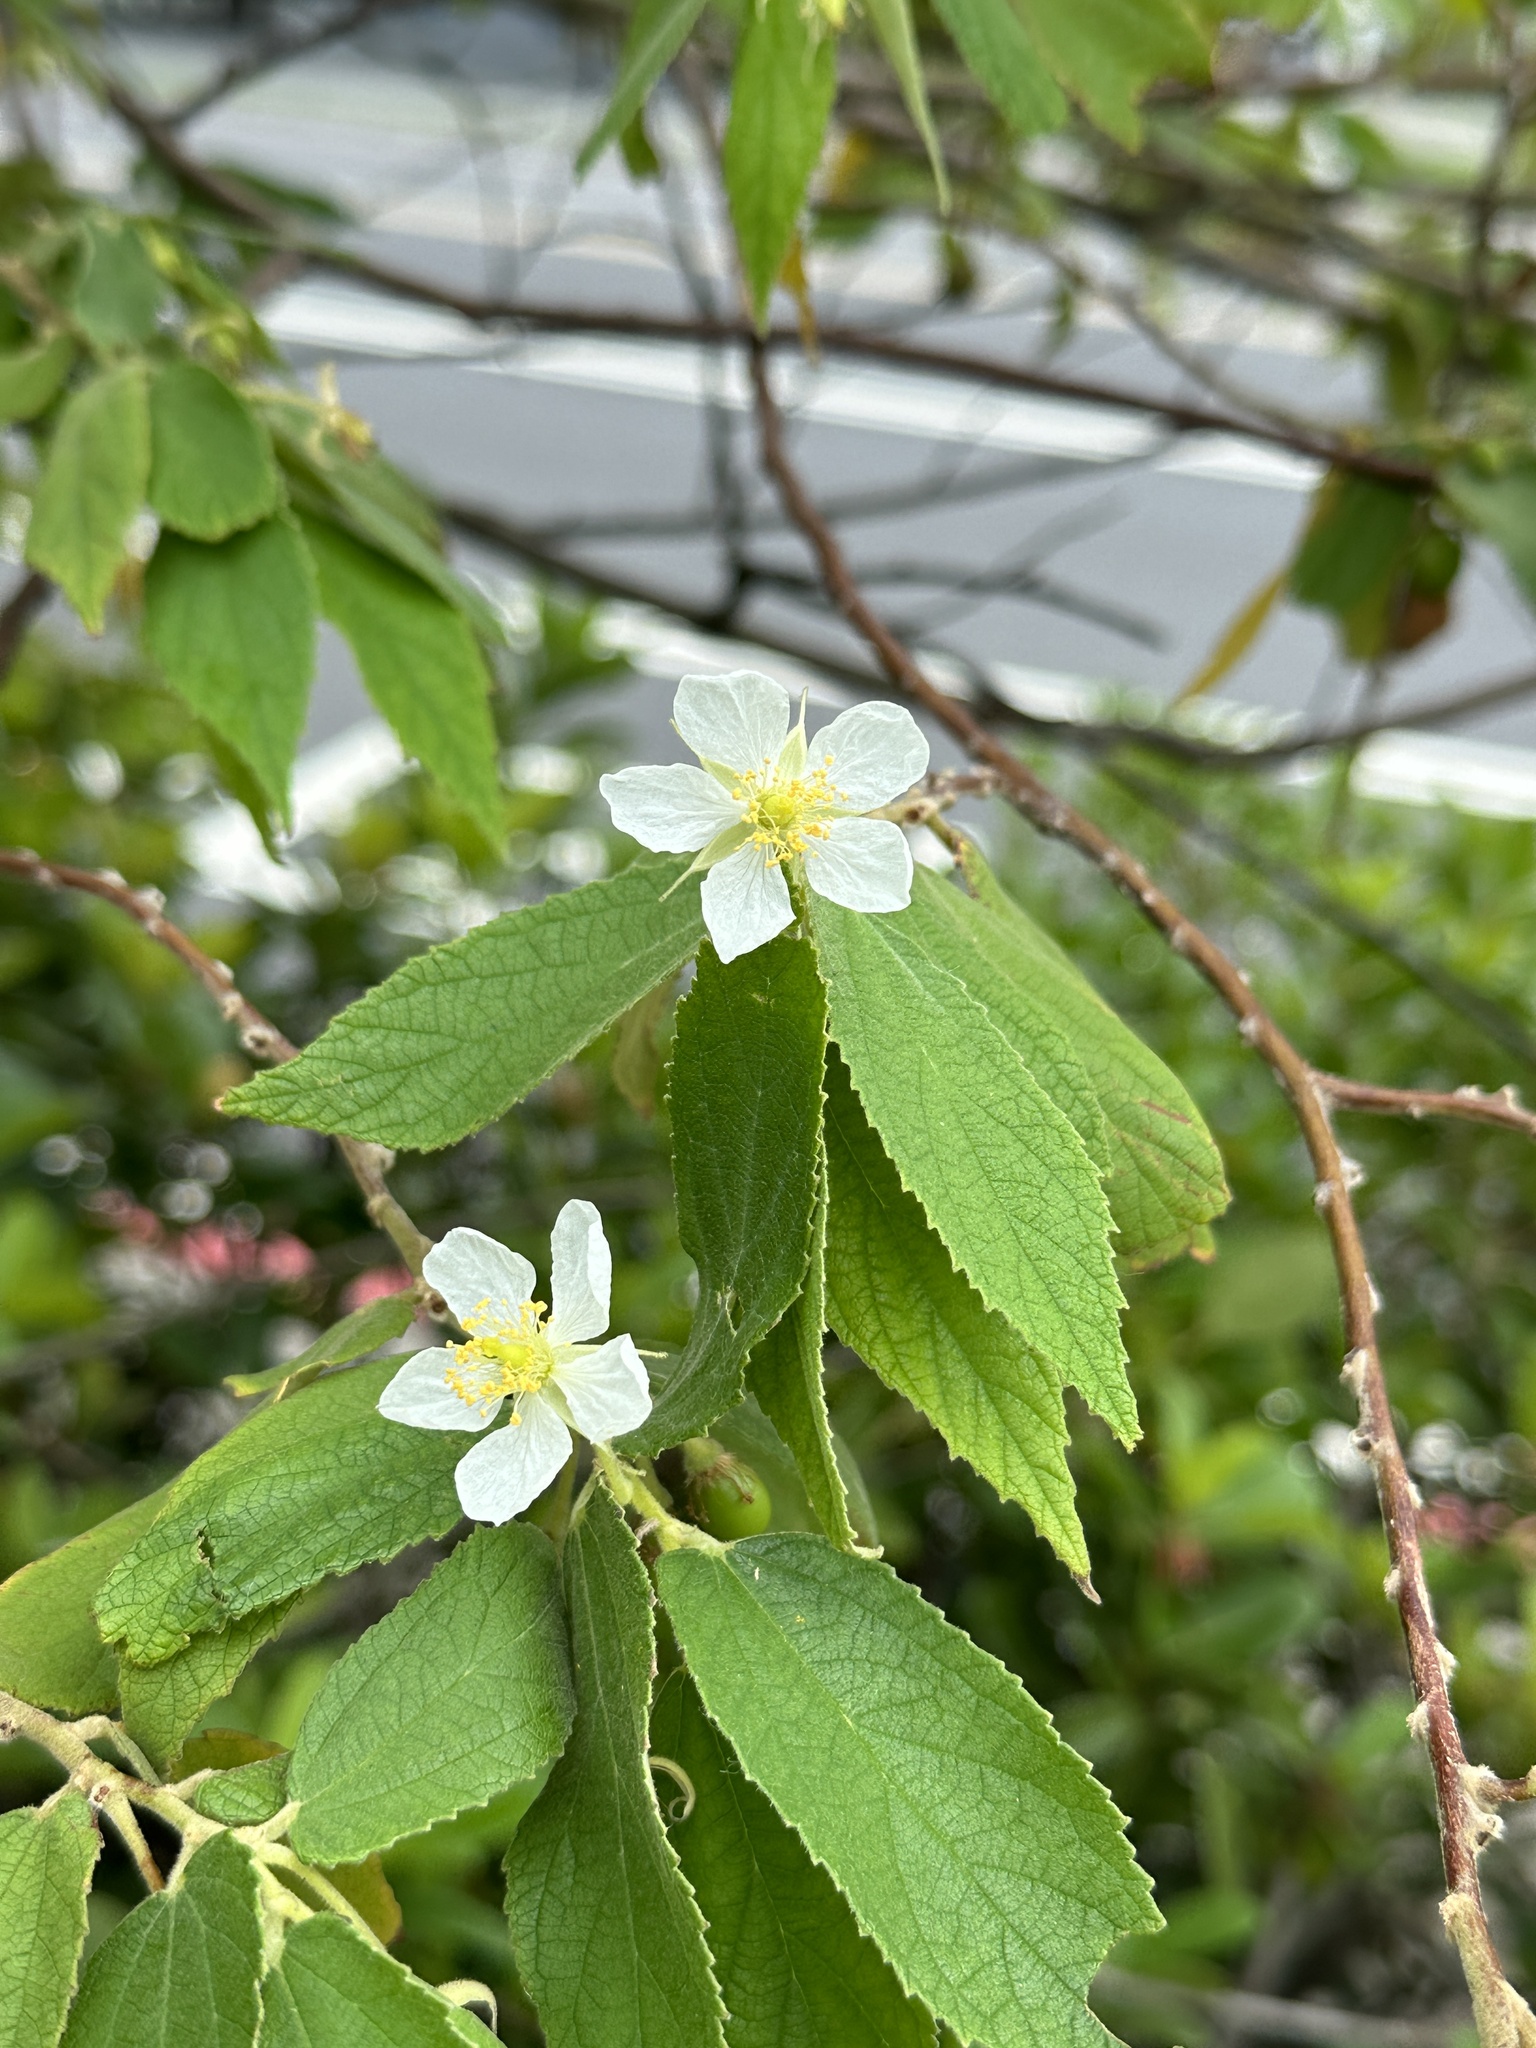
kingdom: Plantae
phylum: Tracheophyta
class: Magnoliopsida
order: Malvales
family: Muntingiaceae
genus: Muntingia
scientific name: Muntingia calabura
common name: Strawberrytree
